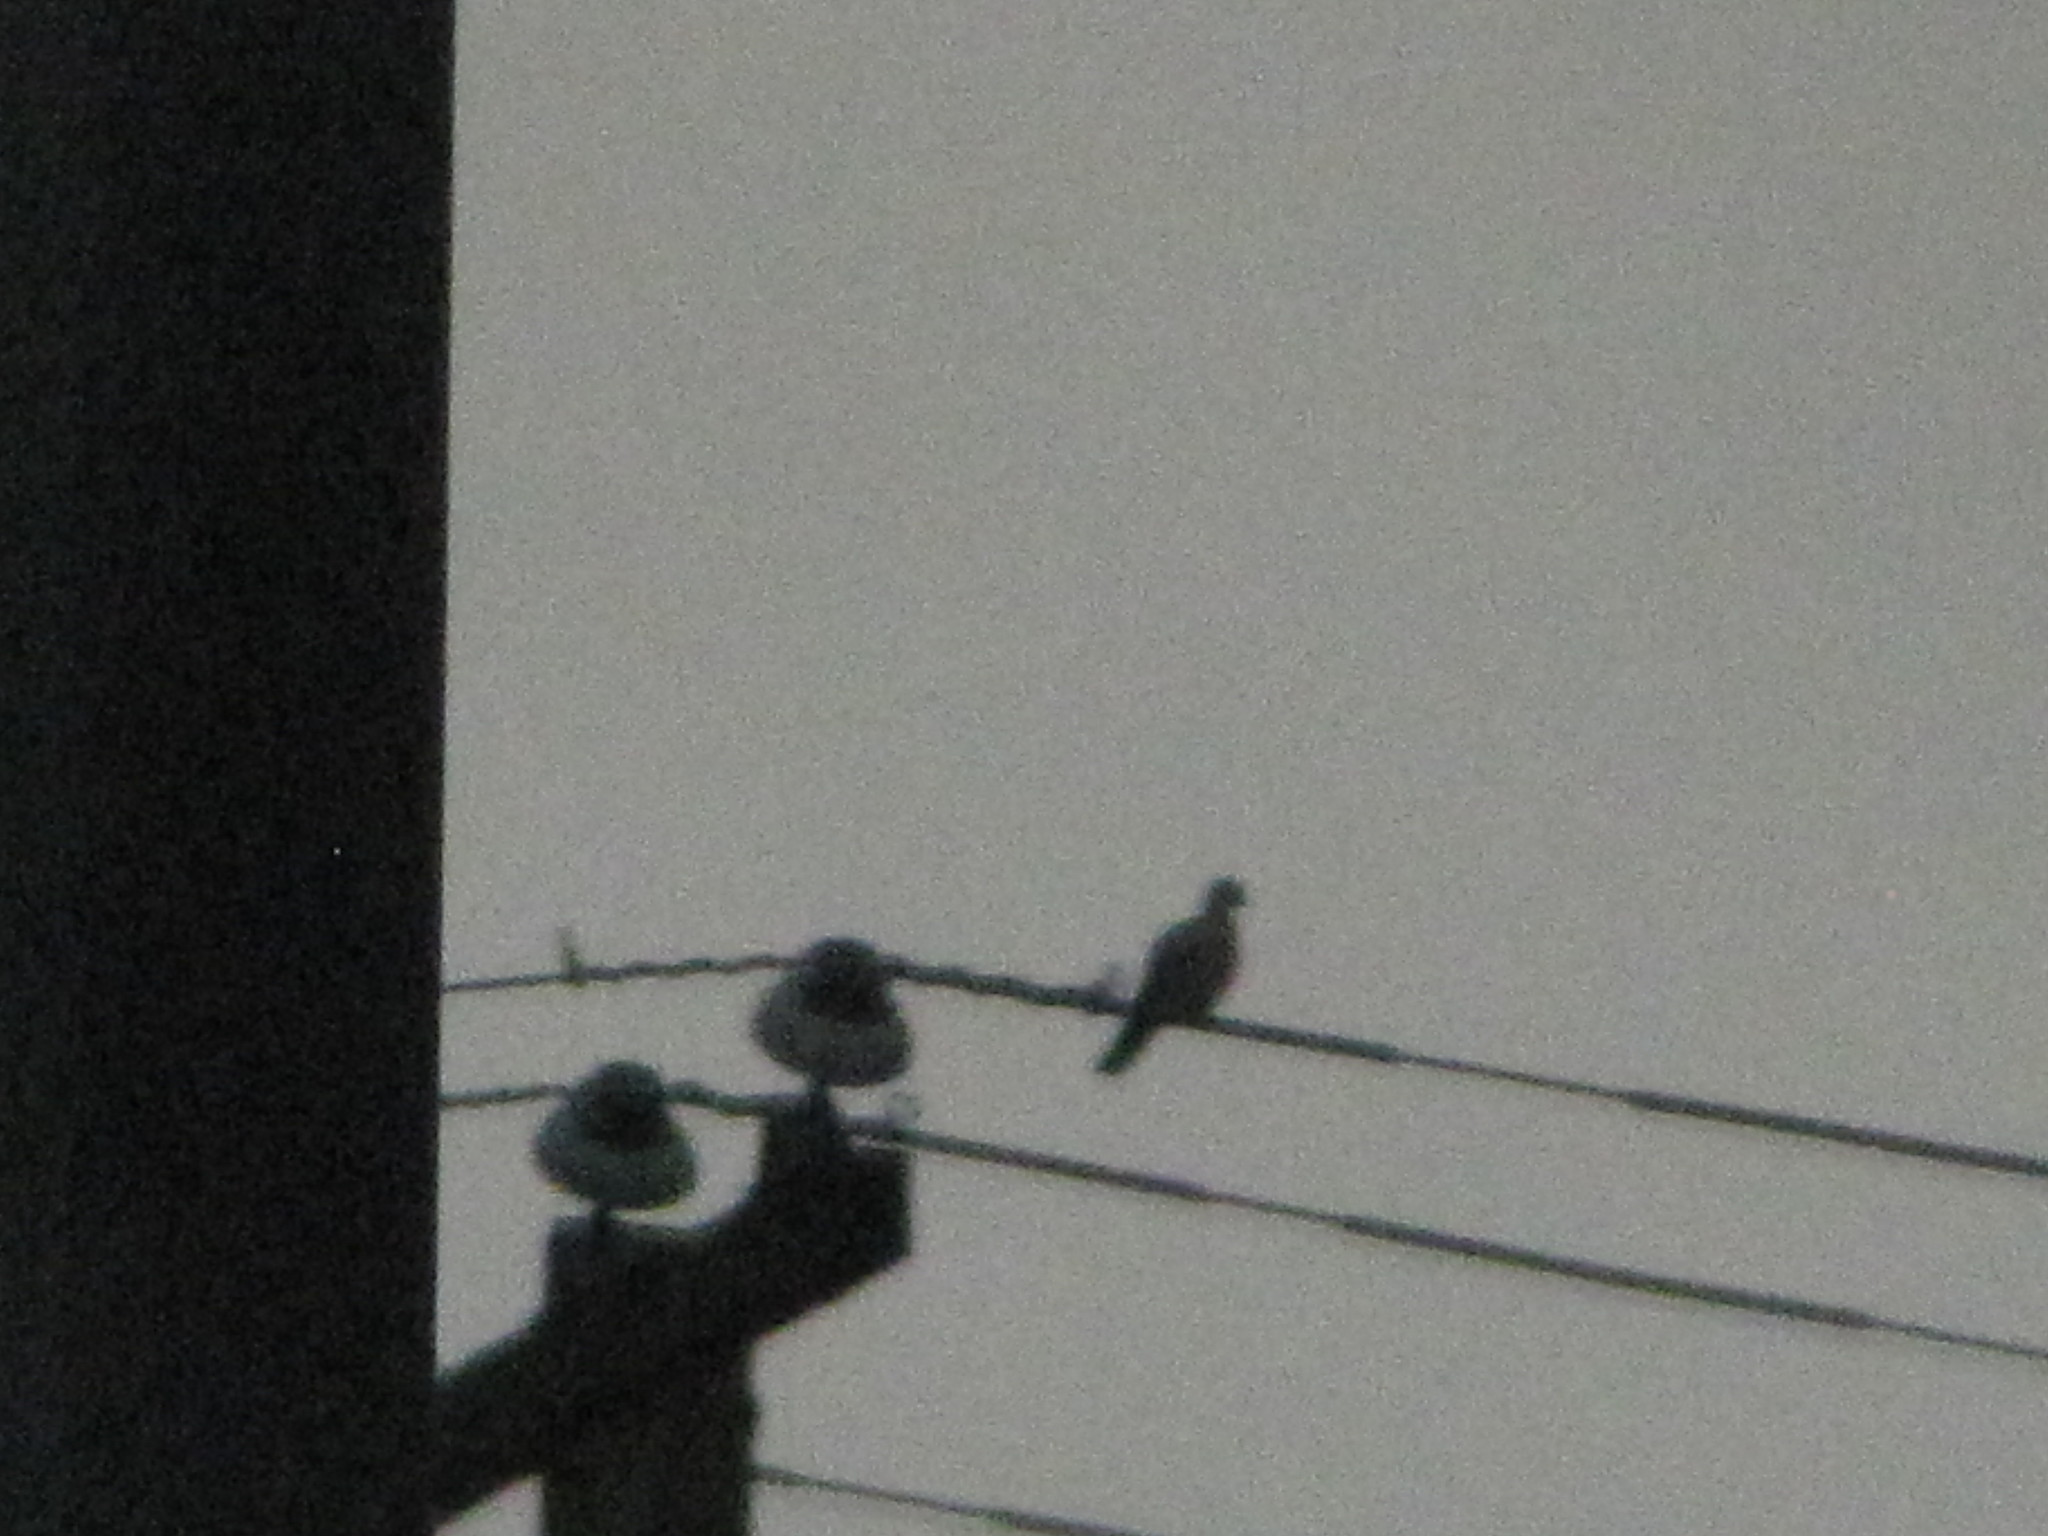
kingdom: Animalia
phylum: Chordata
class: Aves
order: Columbiformes
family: Columbidae
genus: Streptopelia
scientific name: Streptopelia decaocto
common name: Eurasian collared dove
